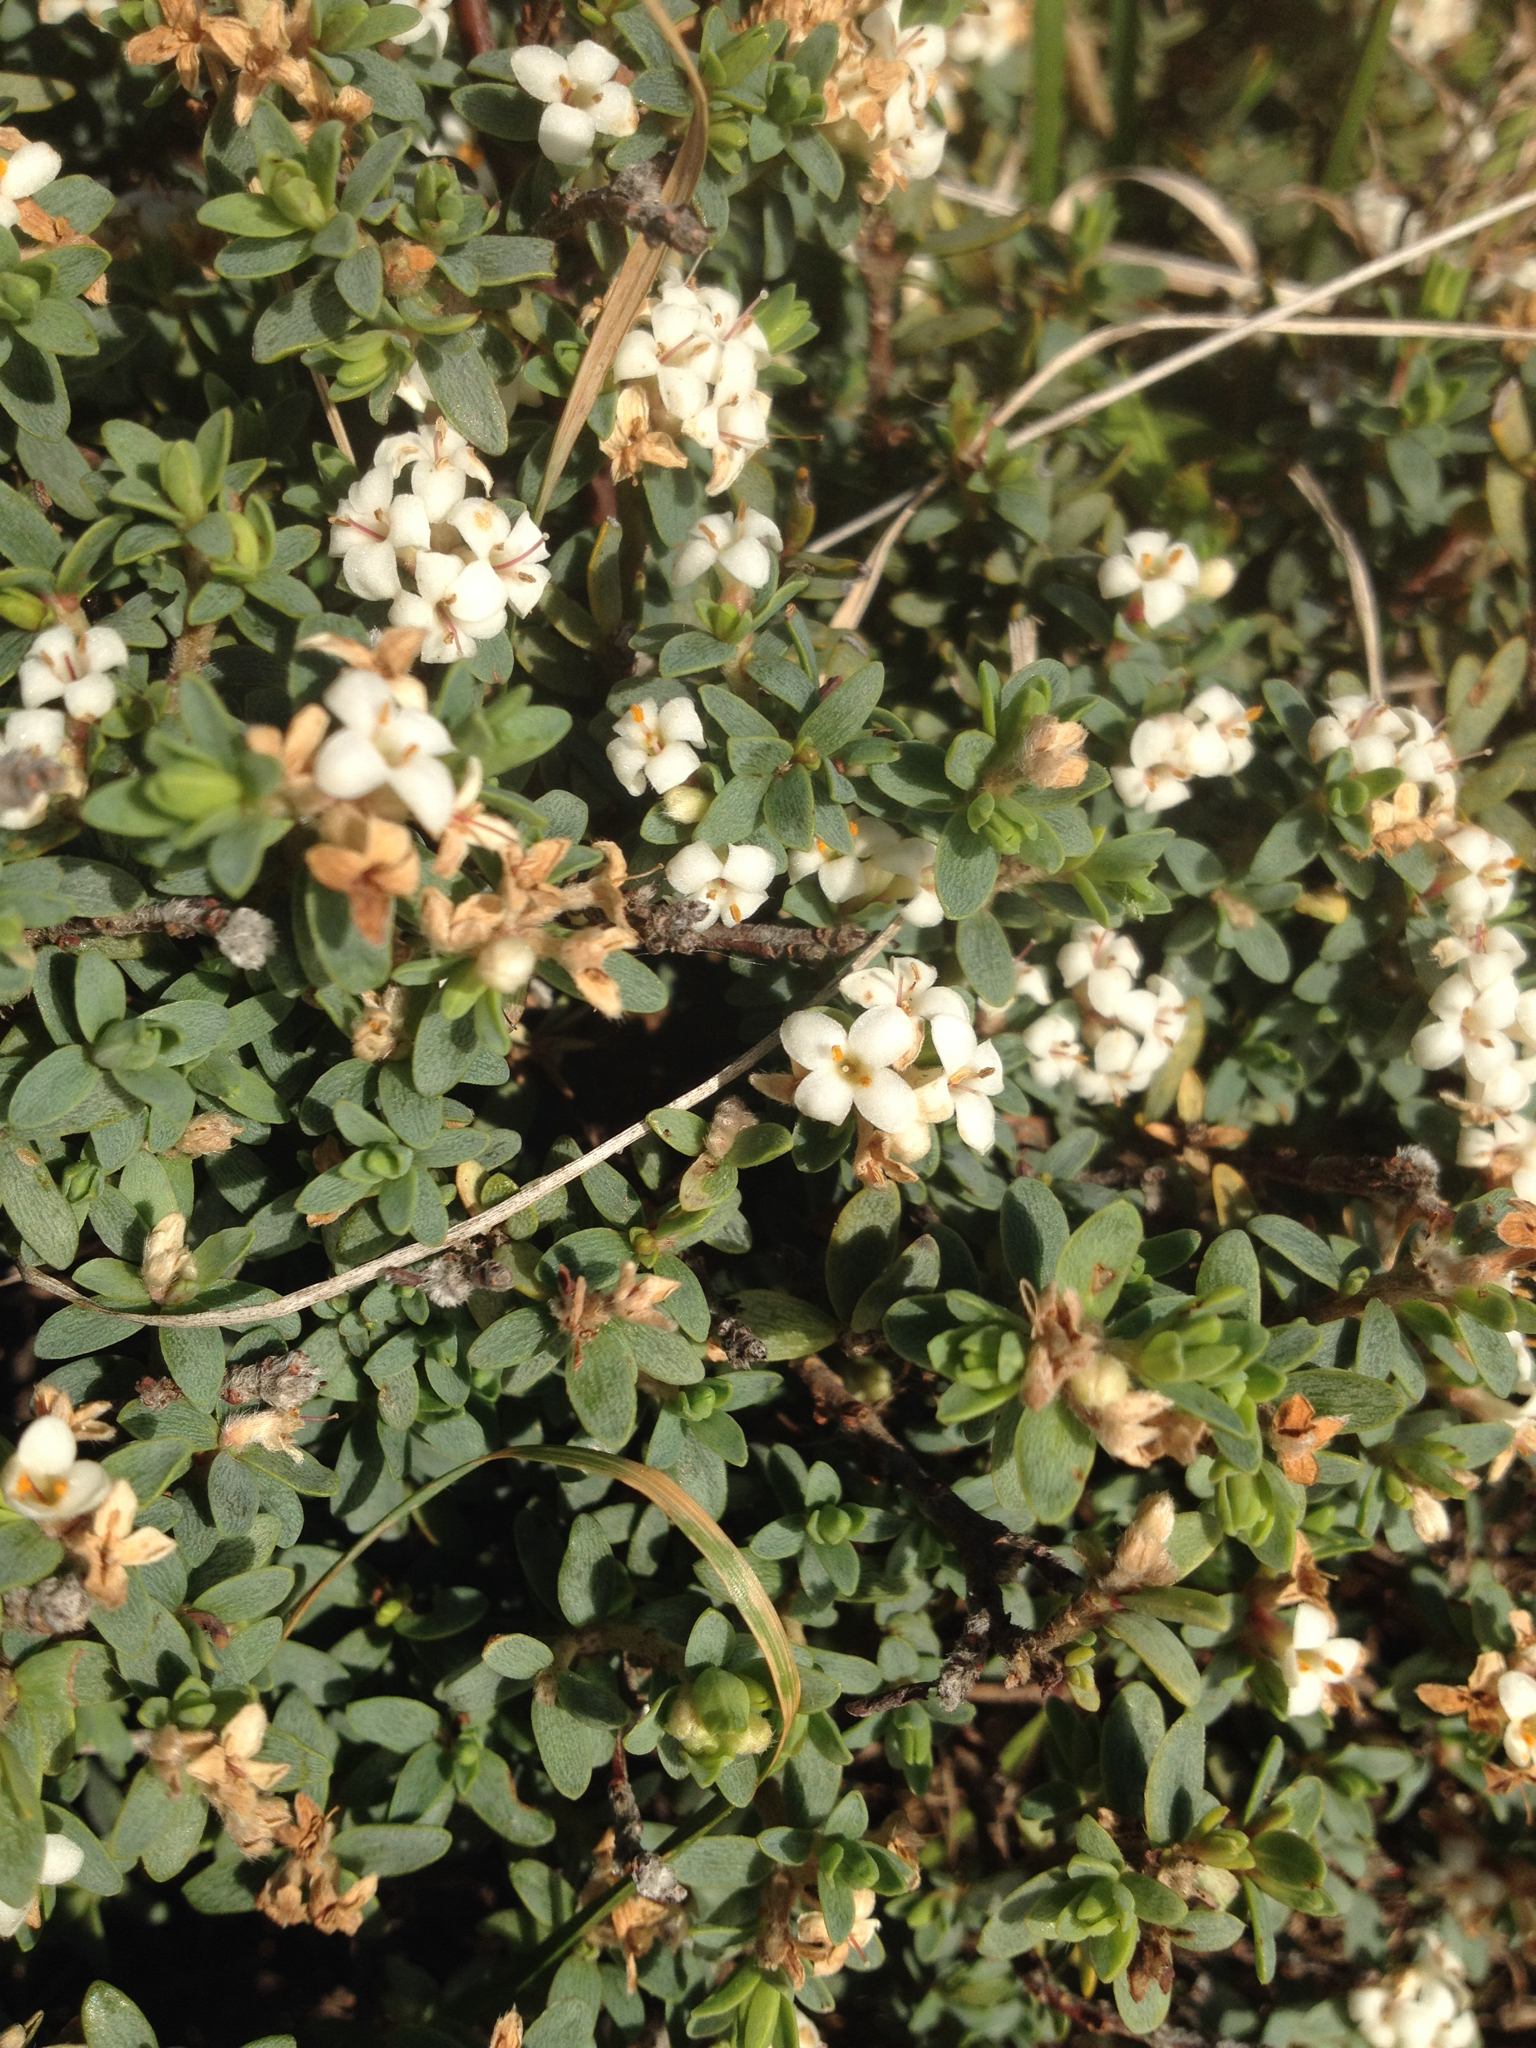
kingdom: Plantae
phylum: Tracheophyta
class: Magnoliopsida
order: Malvales
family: Thymelaeaceae
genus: Pimelea
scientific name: Pimelea prostrata
